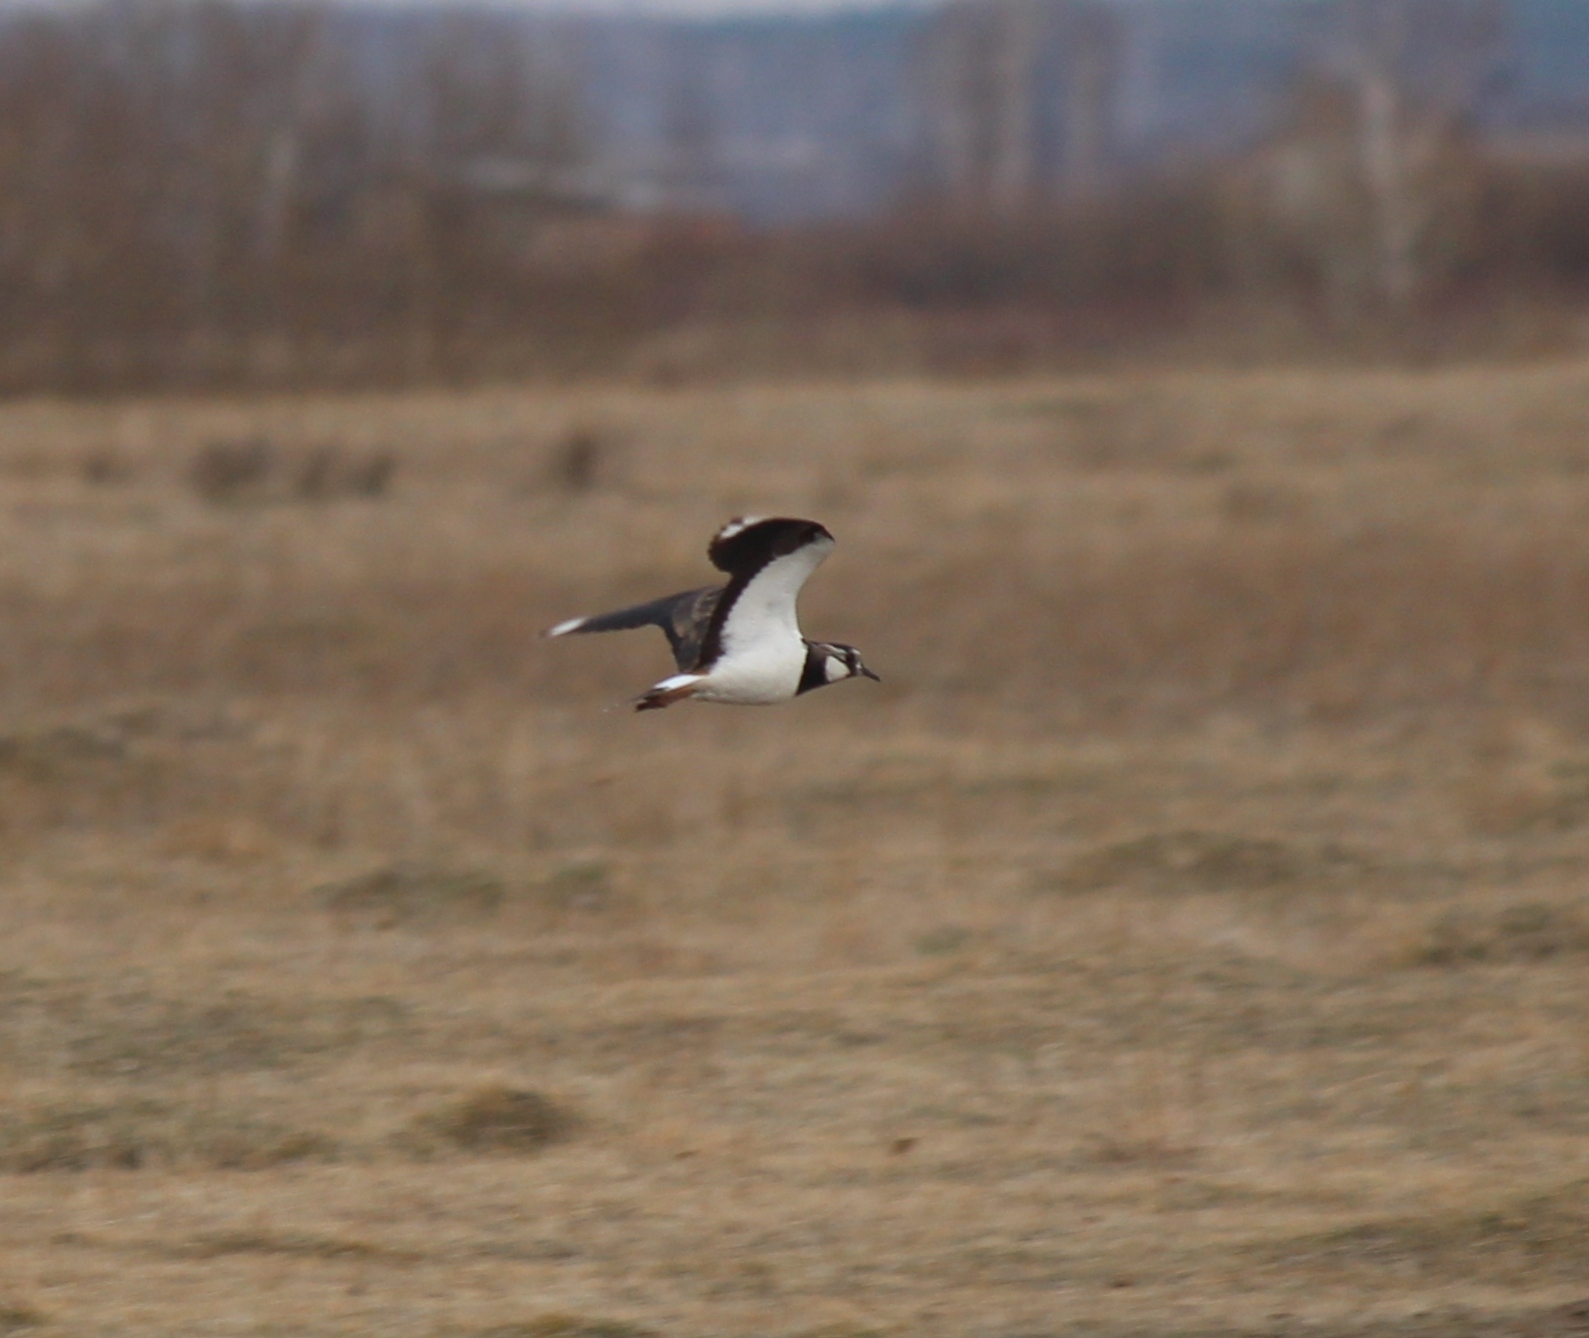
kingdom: Animalia
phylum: Chordata
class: Aves
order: Charadriiformes
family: Charadriidae
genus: Vanellus
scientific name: Vanellus vanellus
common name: Northern lapwing
